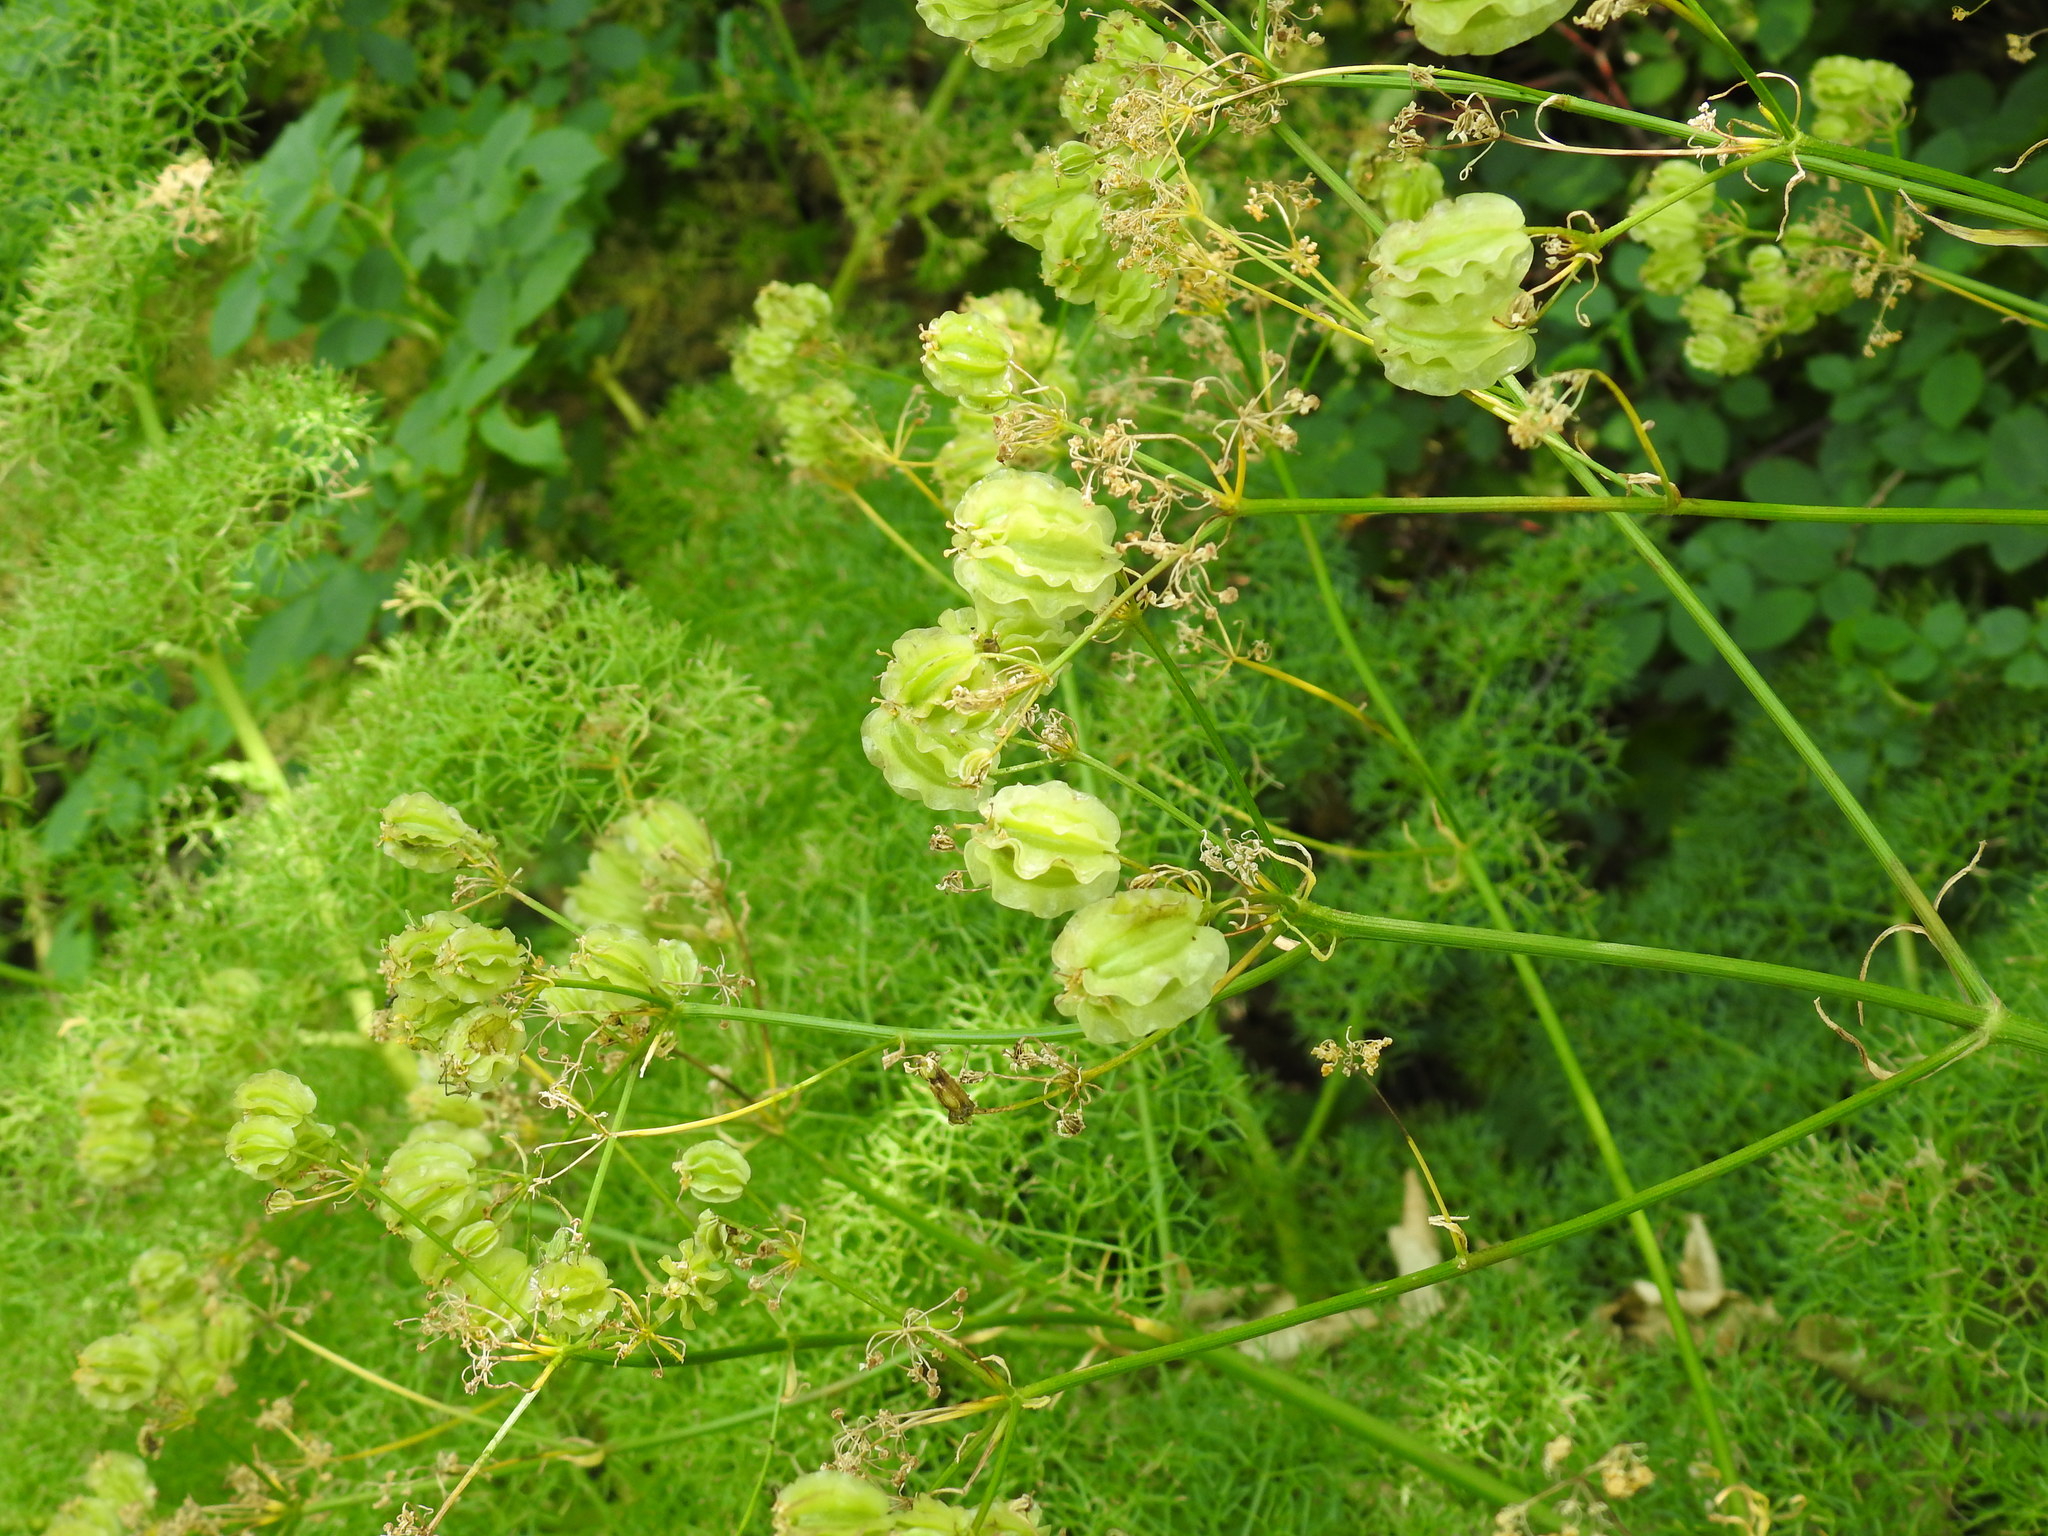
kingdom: Plantae
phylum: Tracheophyta
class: Magnoliopsida
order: Apiales
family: Apiaceae
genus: Prangos
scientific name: Prangos ferulacea
